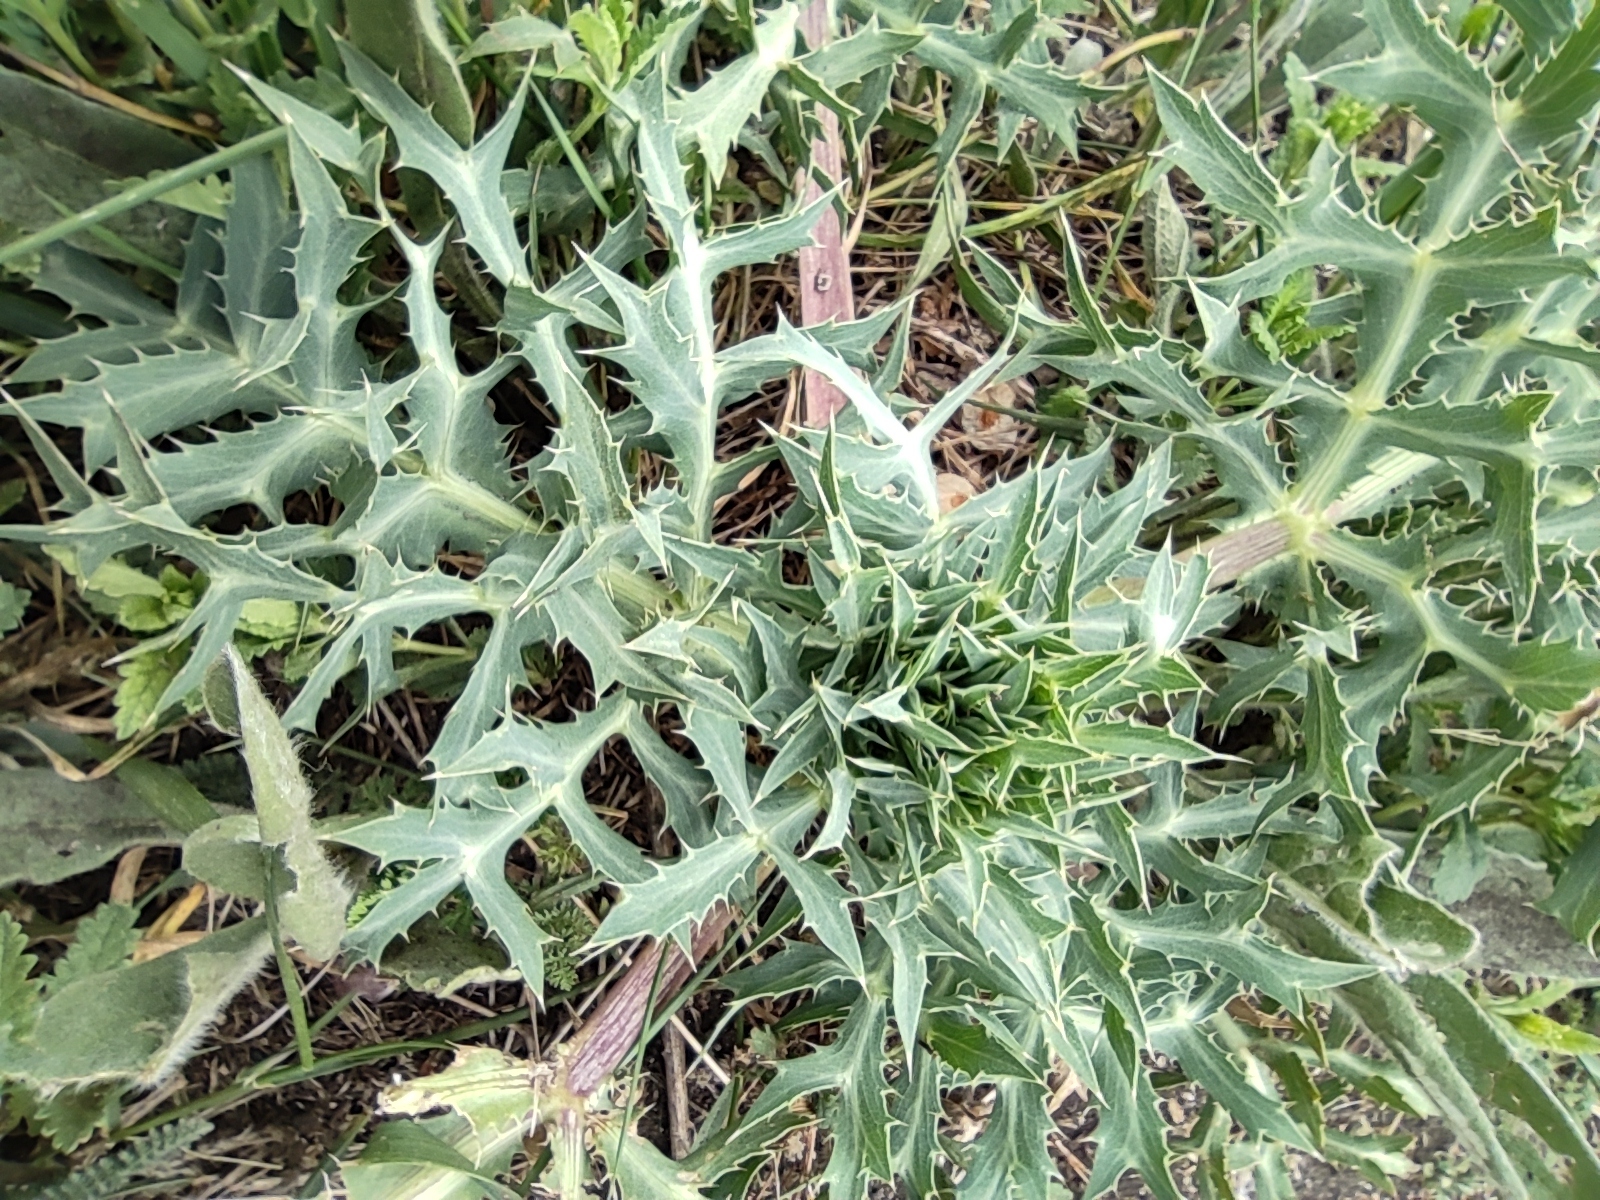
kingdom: Plantae
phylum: Tracheophyta
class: Magnoliopsida
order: Apiales
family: Apiaceae
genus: Eryngium
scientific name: Eryngium campestre
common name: Field eryngo
